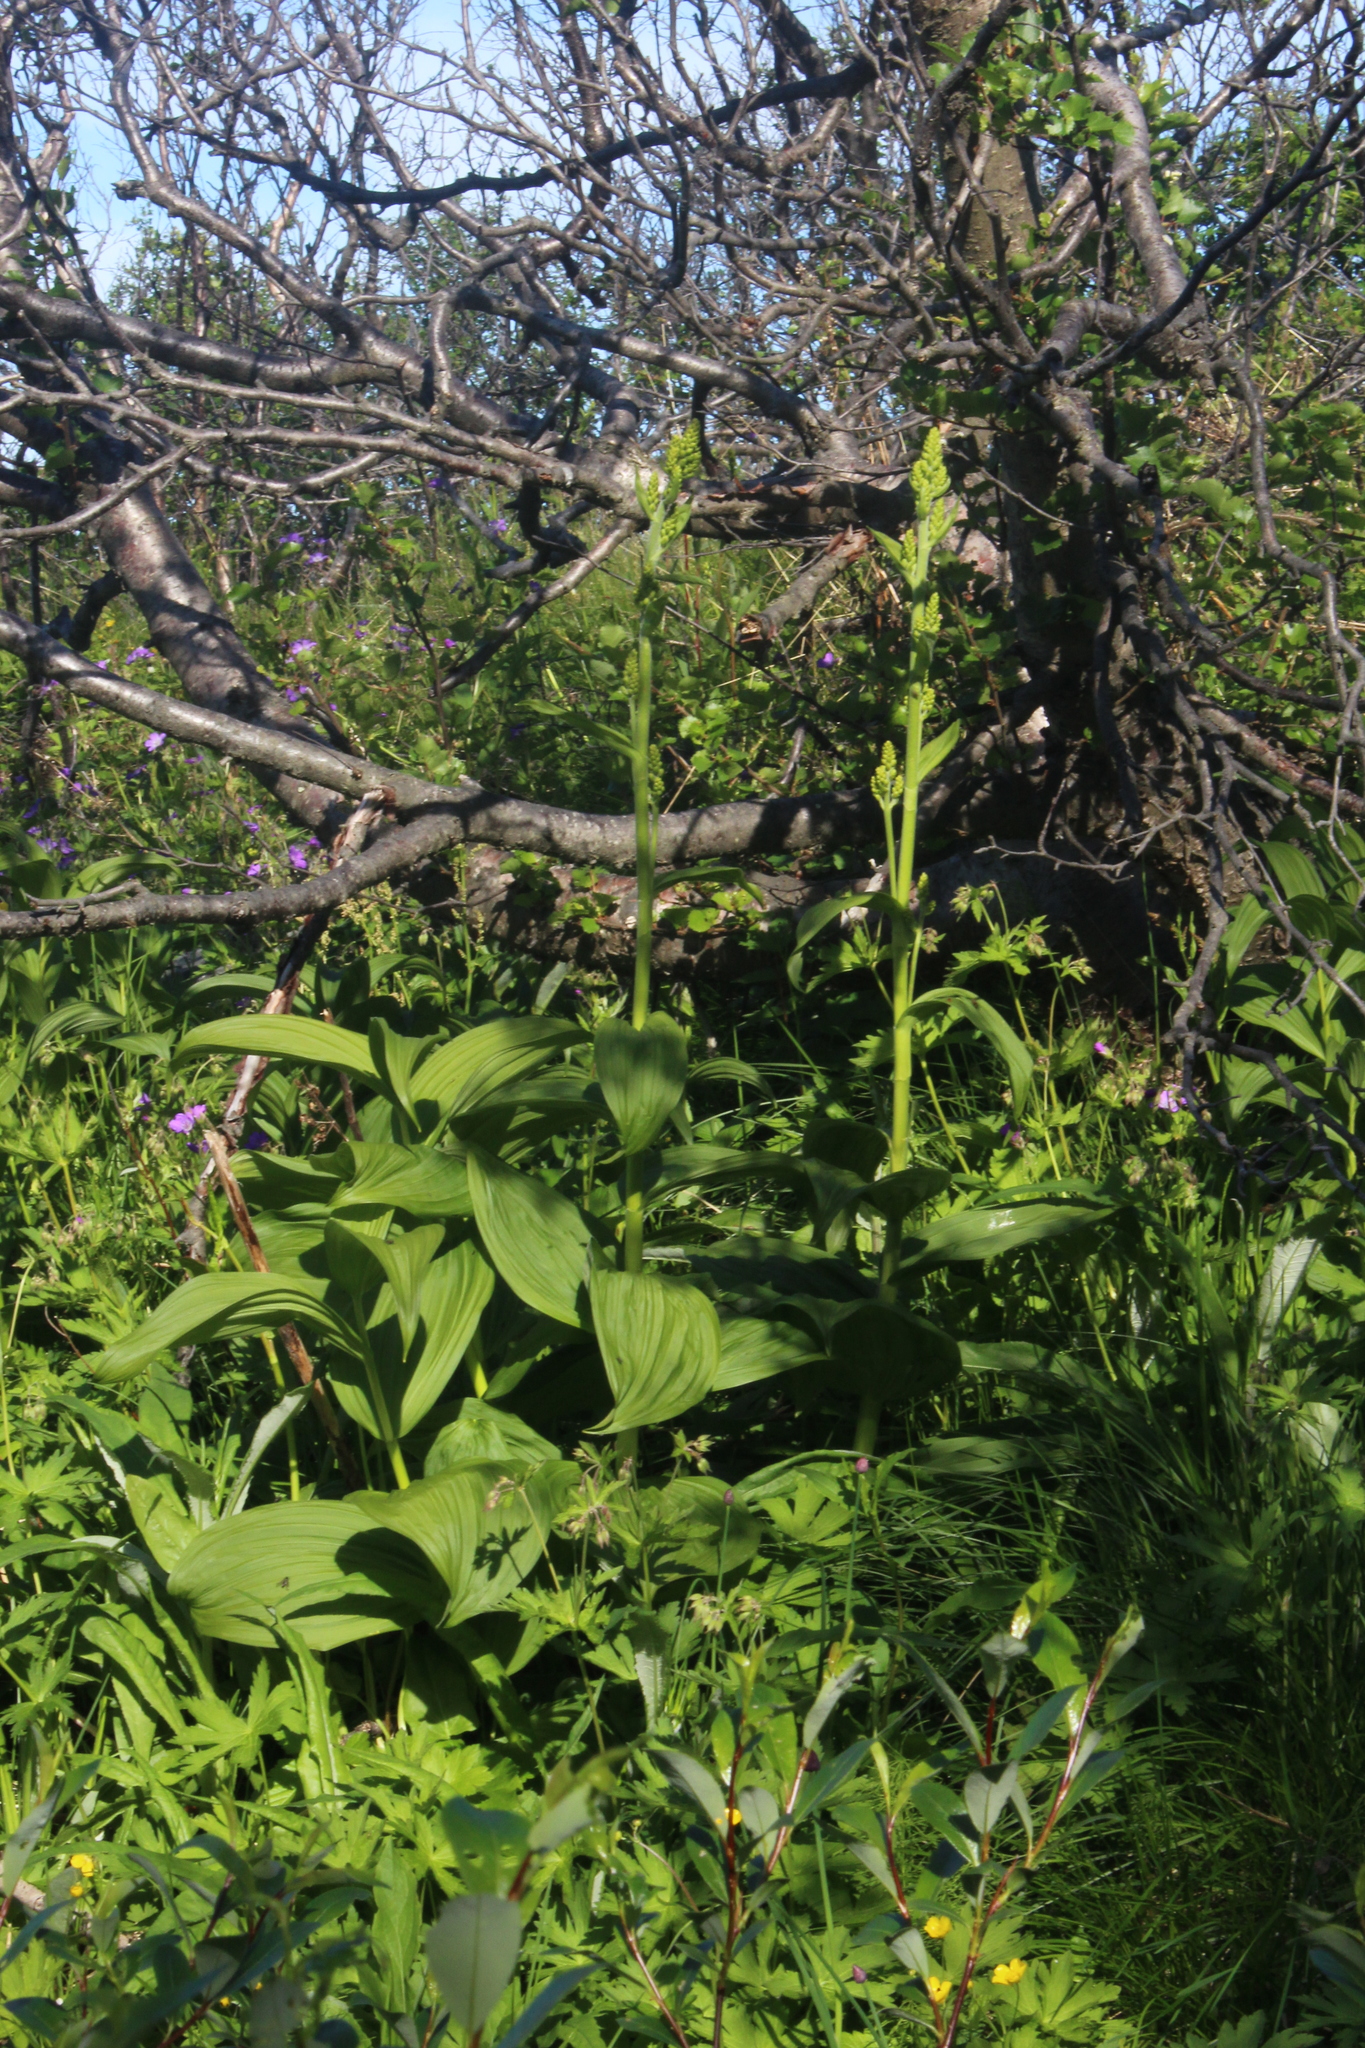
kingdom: Plantae
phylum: Tracheophyta
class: Liliopsida
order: Liliales
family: Melanthiaceae
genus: Veratrum
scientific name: Veratrum lobelianum
